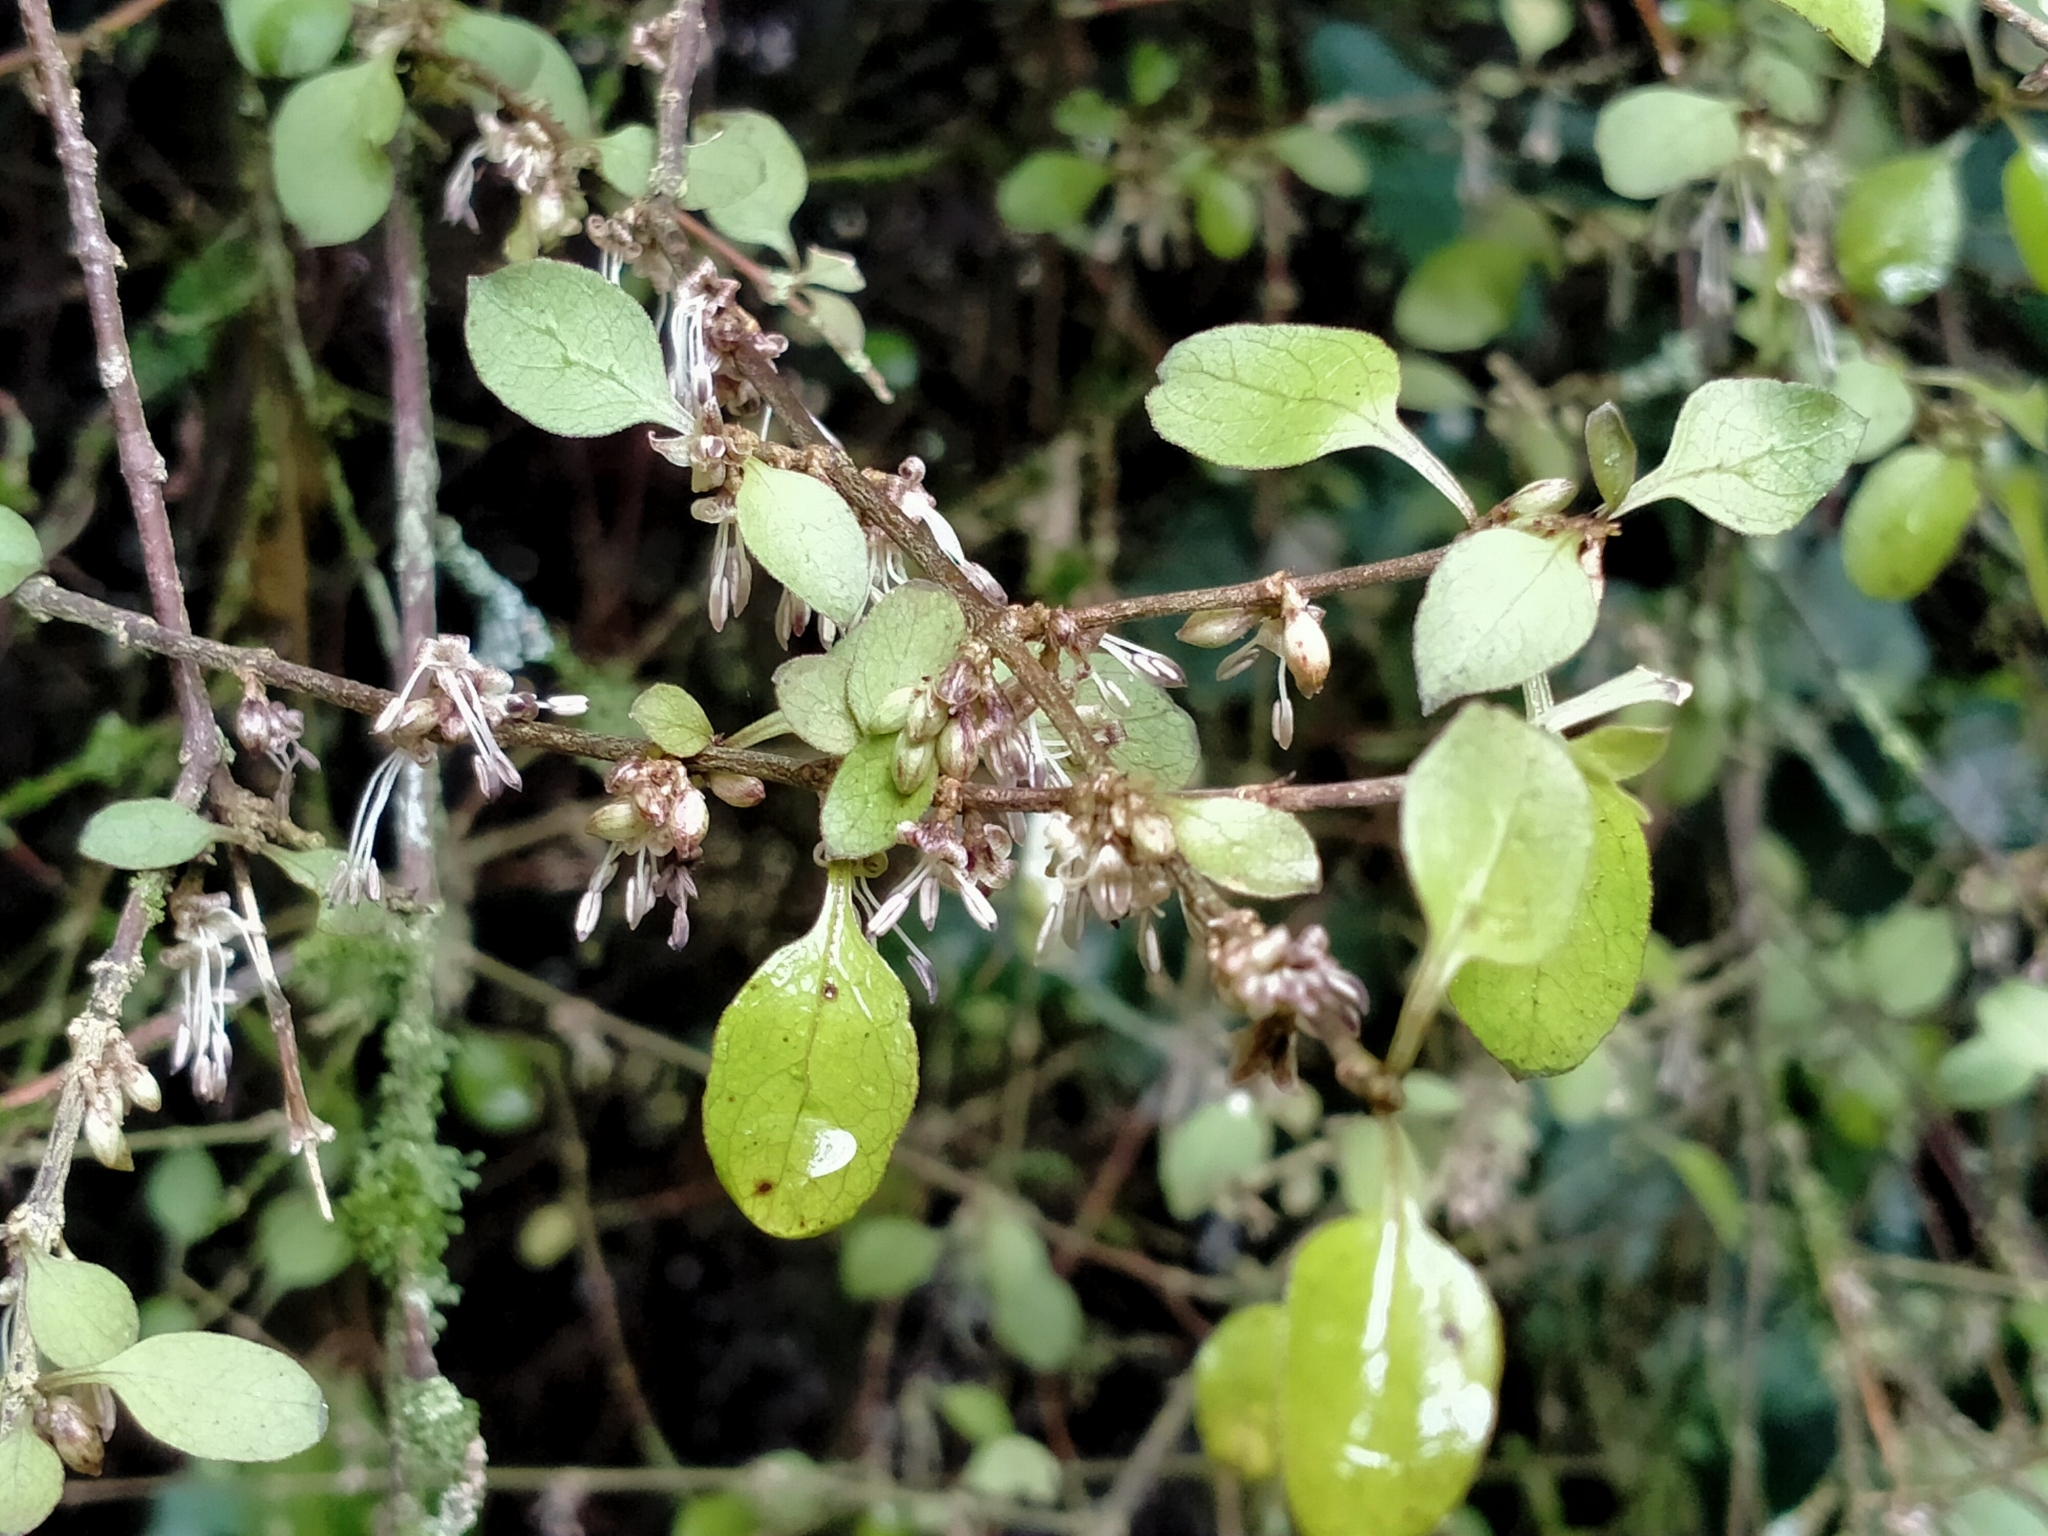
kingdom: Plantae
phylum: Tracheophyta
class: Magnoliopsida
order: Gentianales
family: Rubiaceae
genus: Coprosma
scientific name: Coprosma rubra
